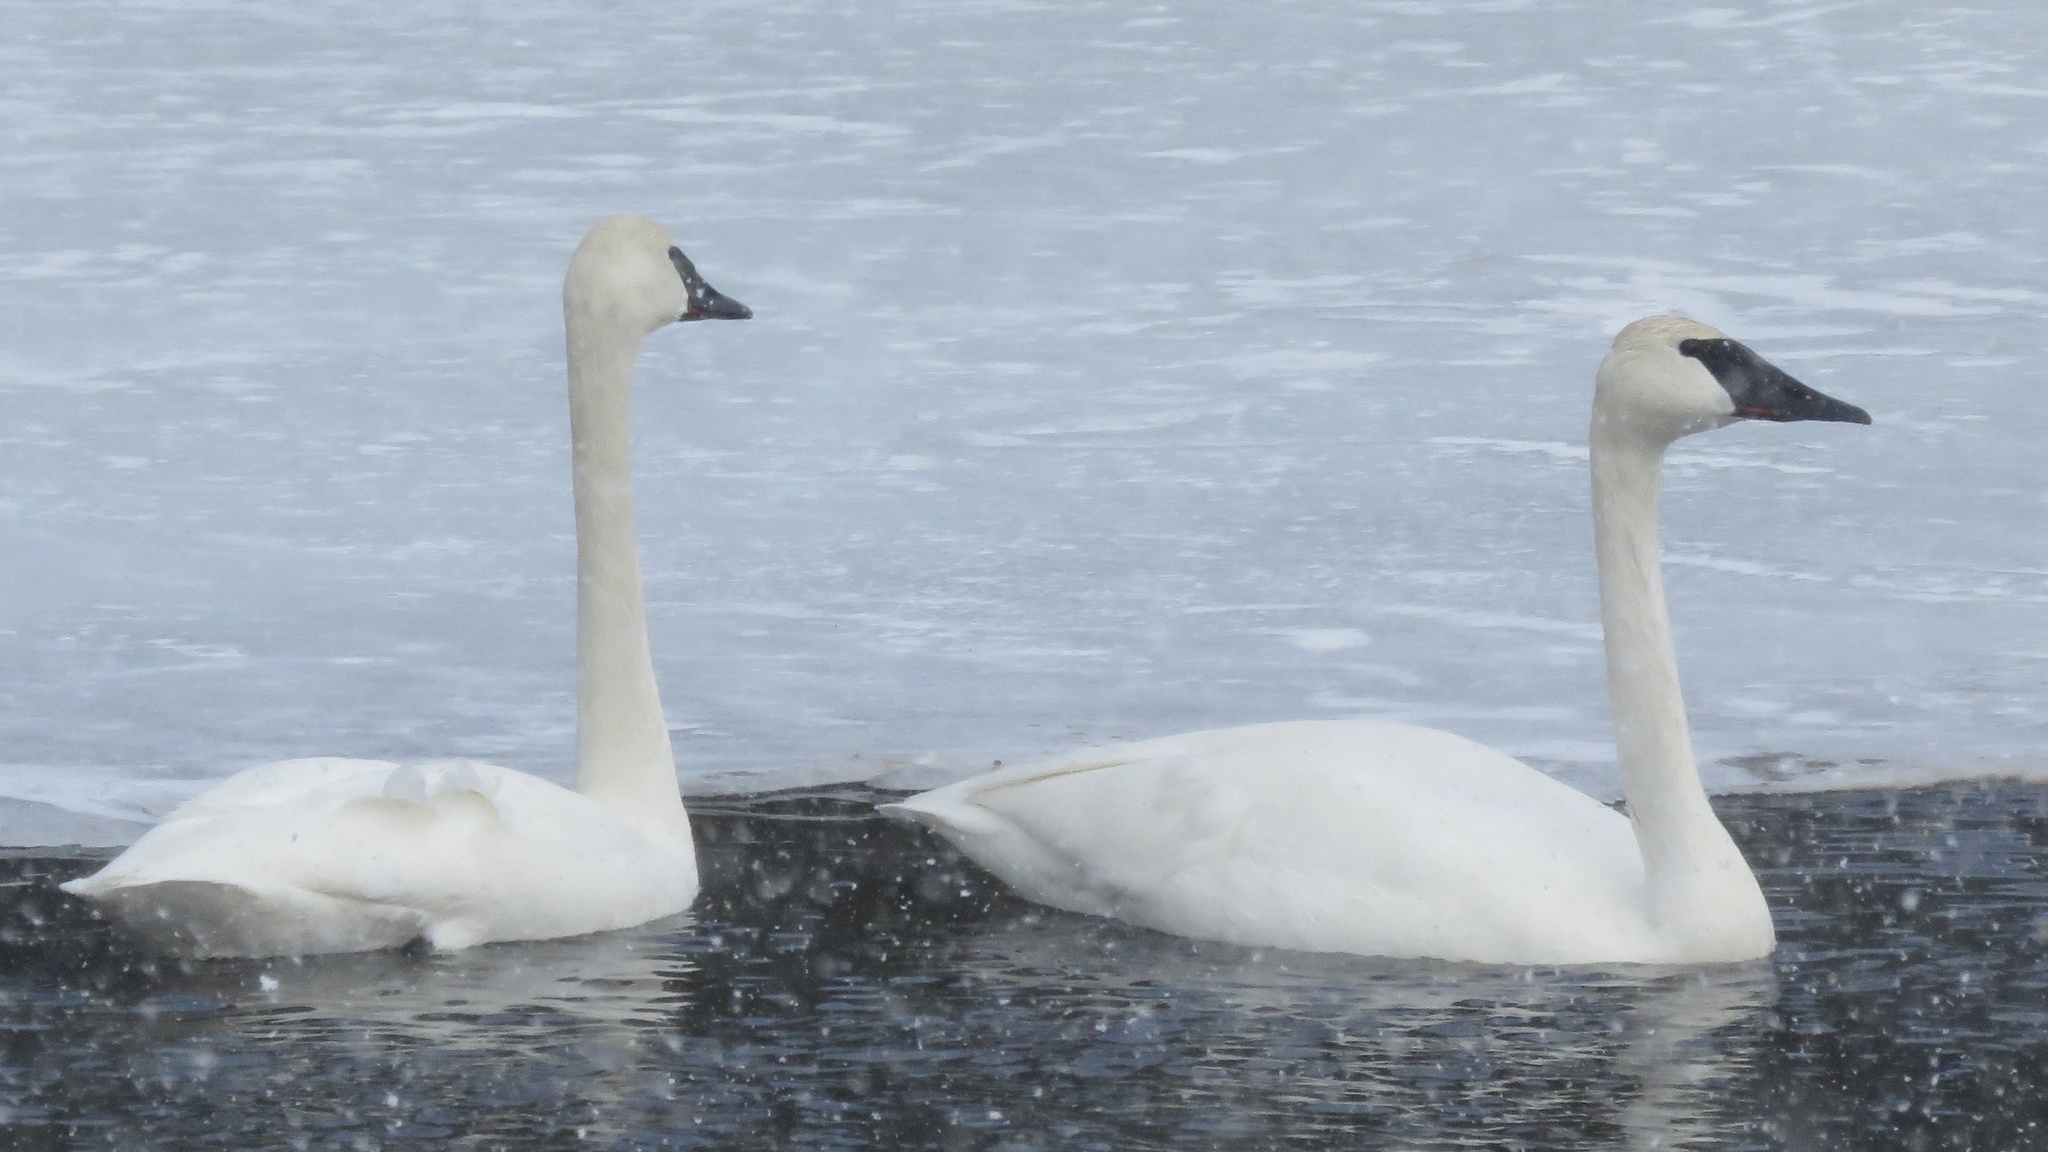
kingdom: Animalia
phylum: Chordata
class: Aves
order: Anseriformes
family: Anatidae
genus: Cygnus
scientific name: Cygnus buccinator
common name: Trumpeter swan
